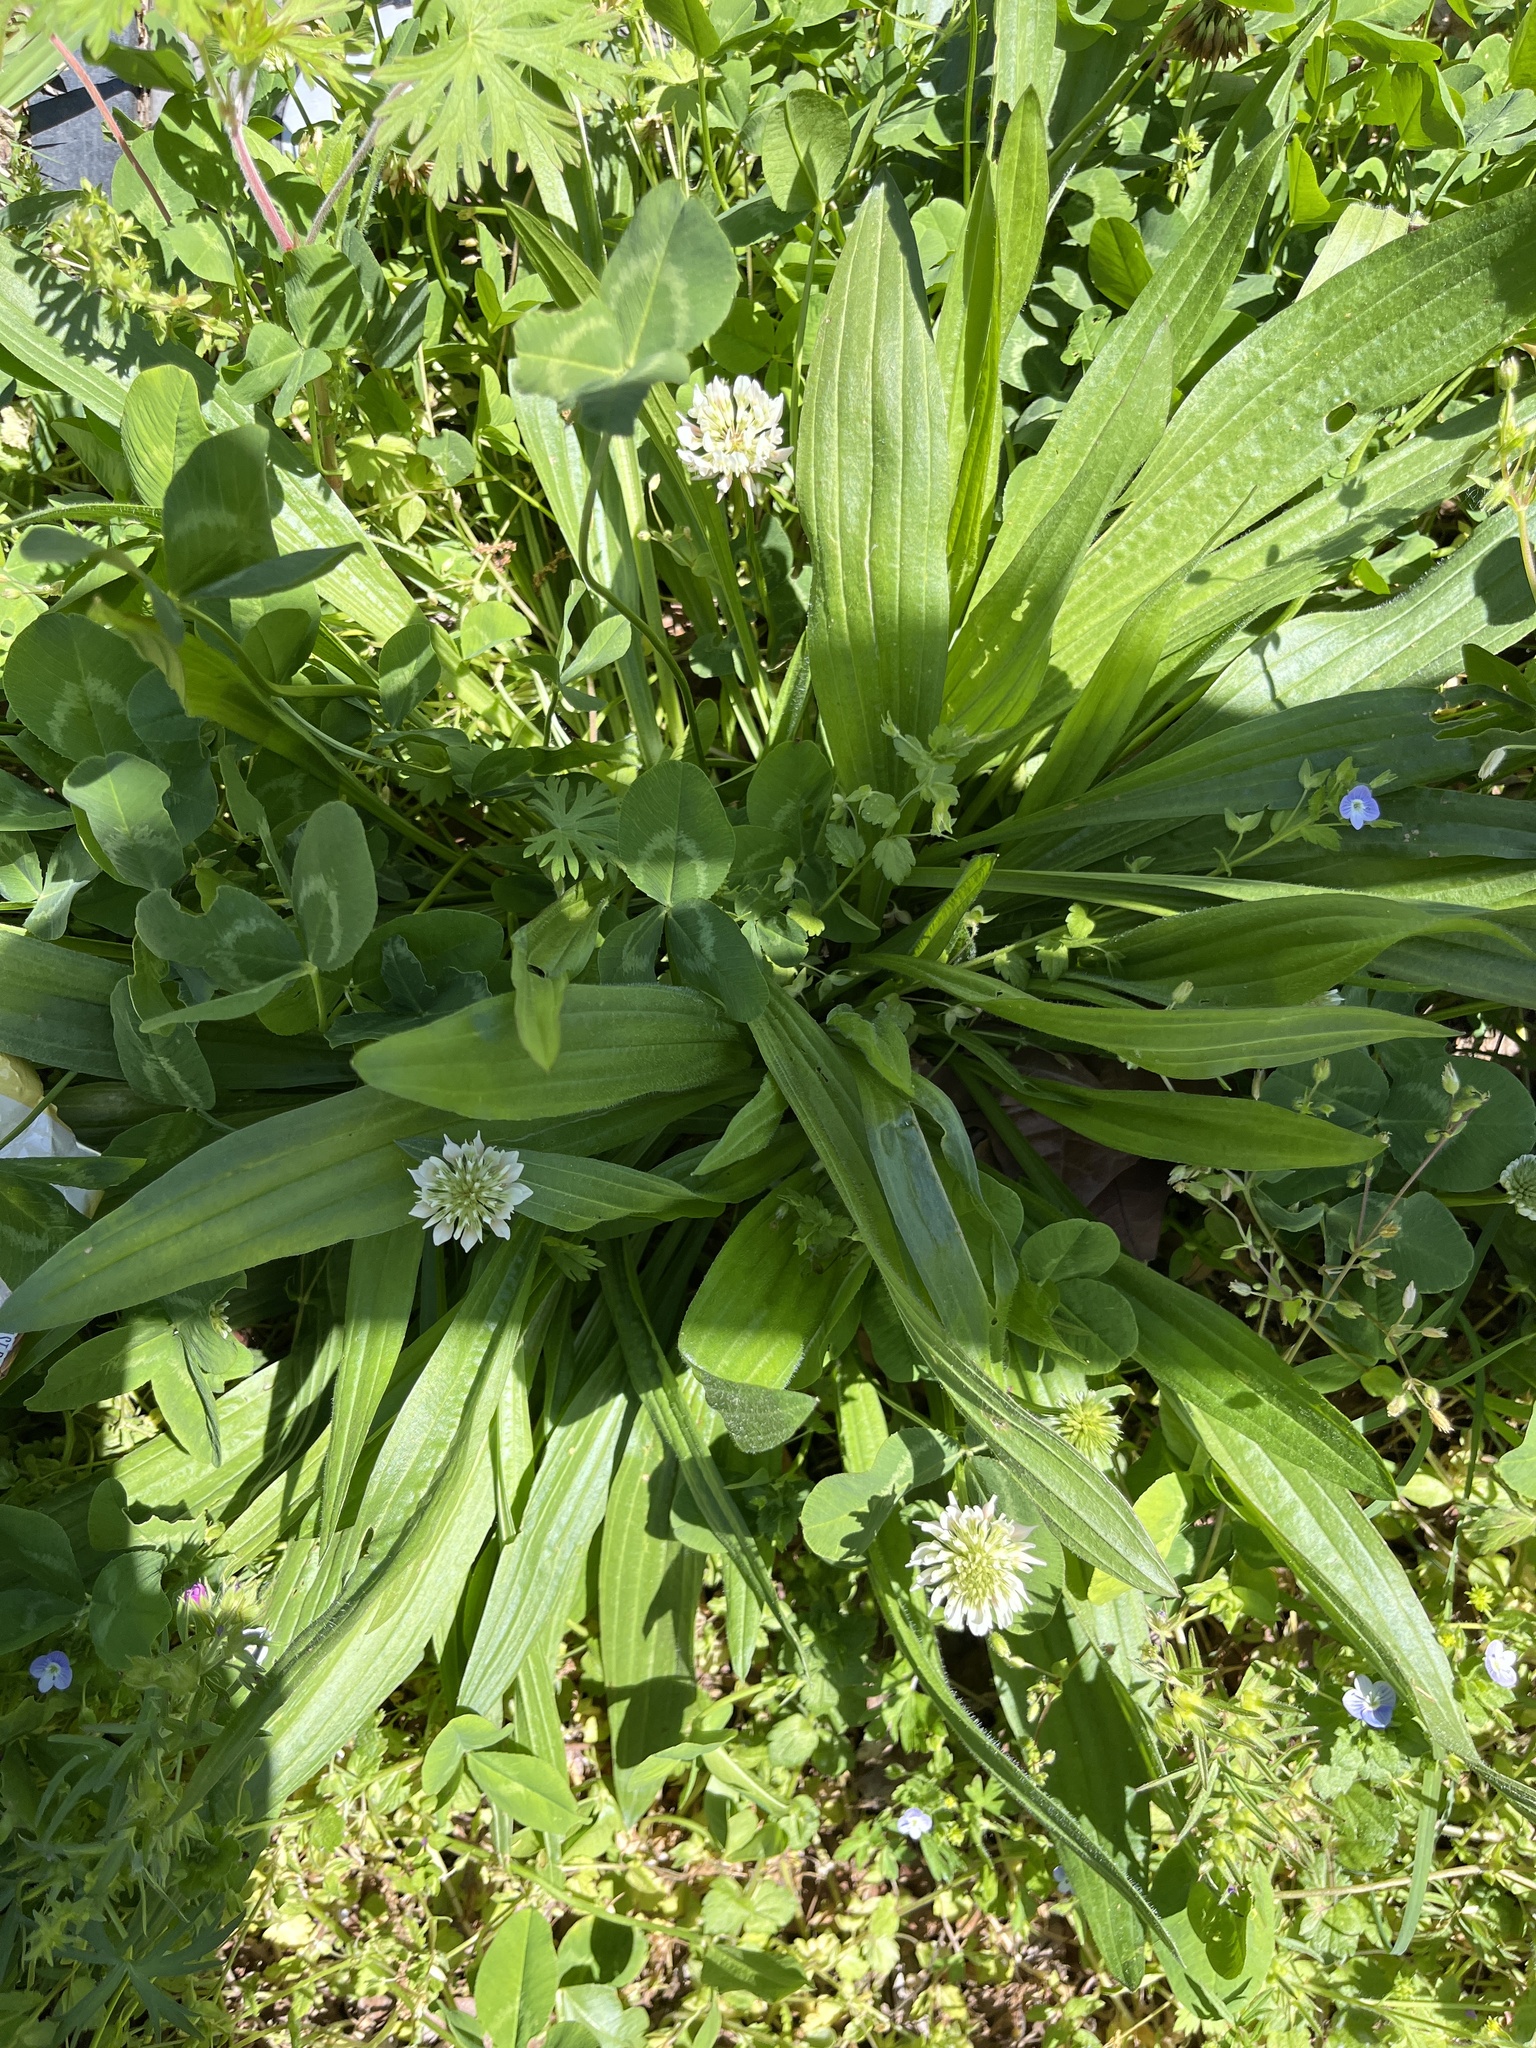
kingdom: Plantae
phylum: Tracheophyta
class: Magnoliopsida
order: Lamiales
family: Plantaginaceae
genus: Plantago
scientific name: Plantago lanceolata
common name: Ribwort plantain
